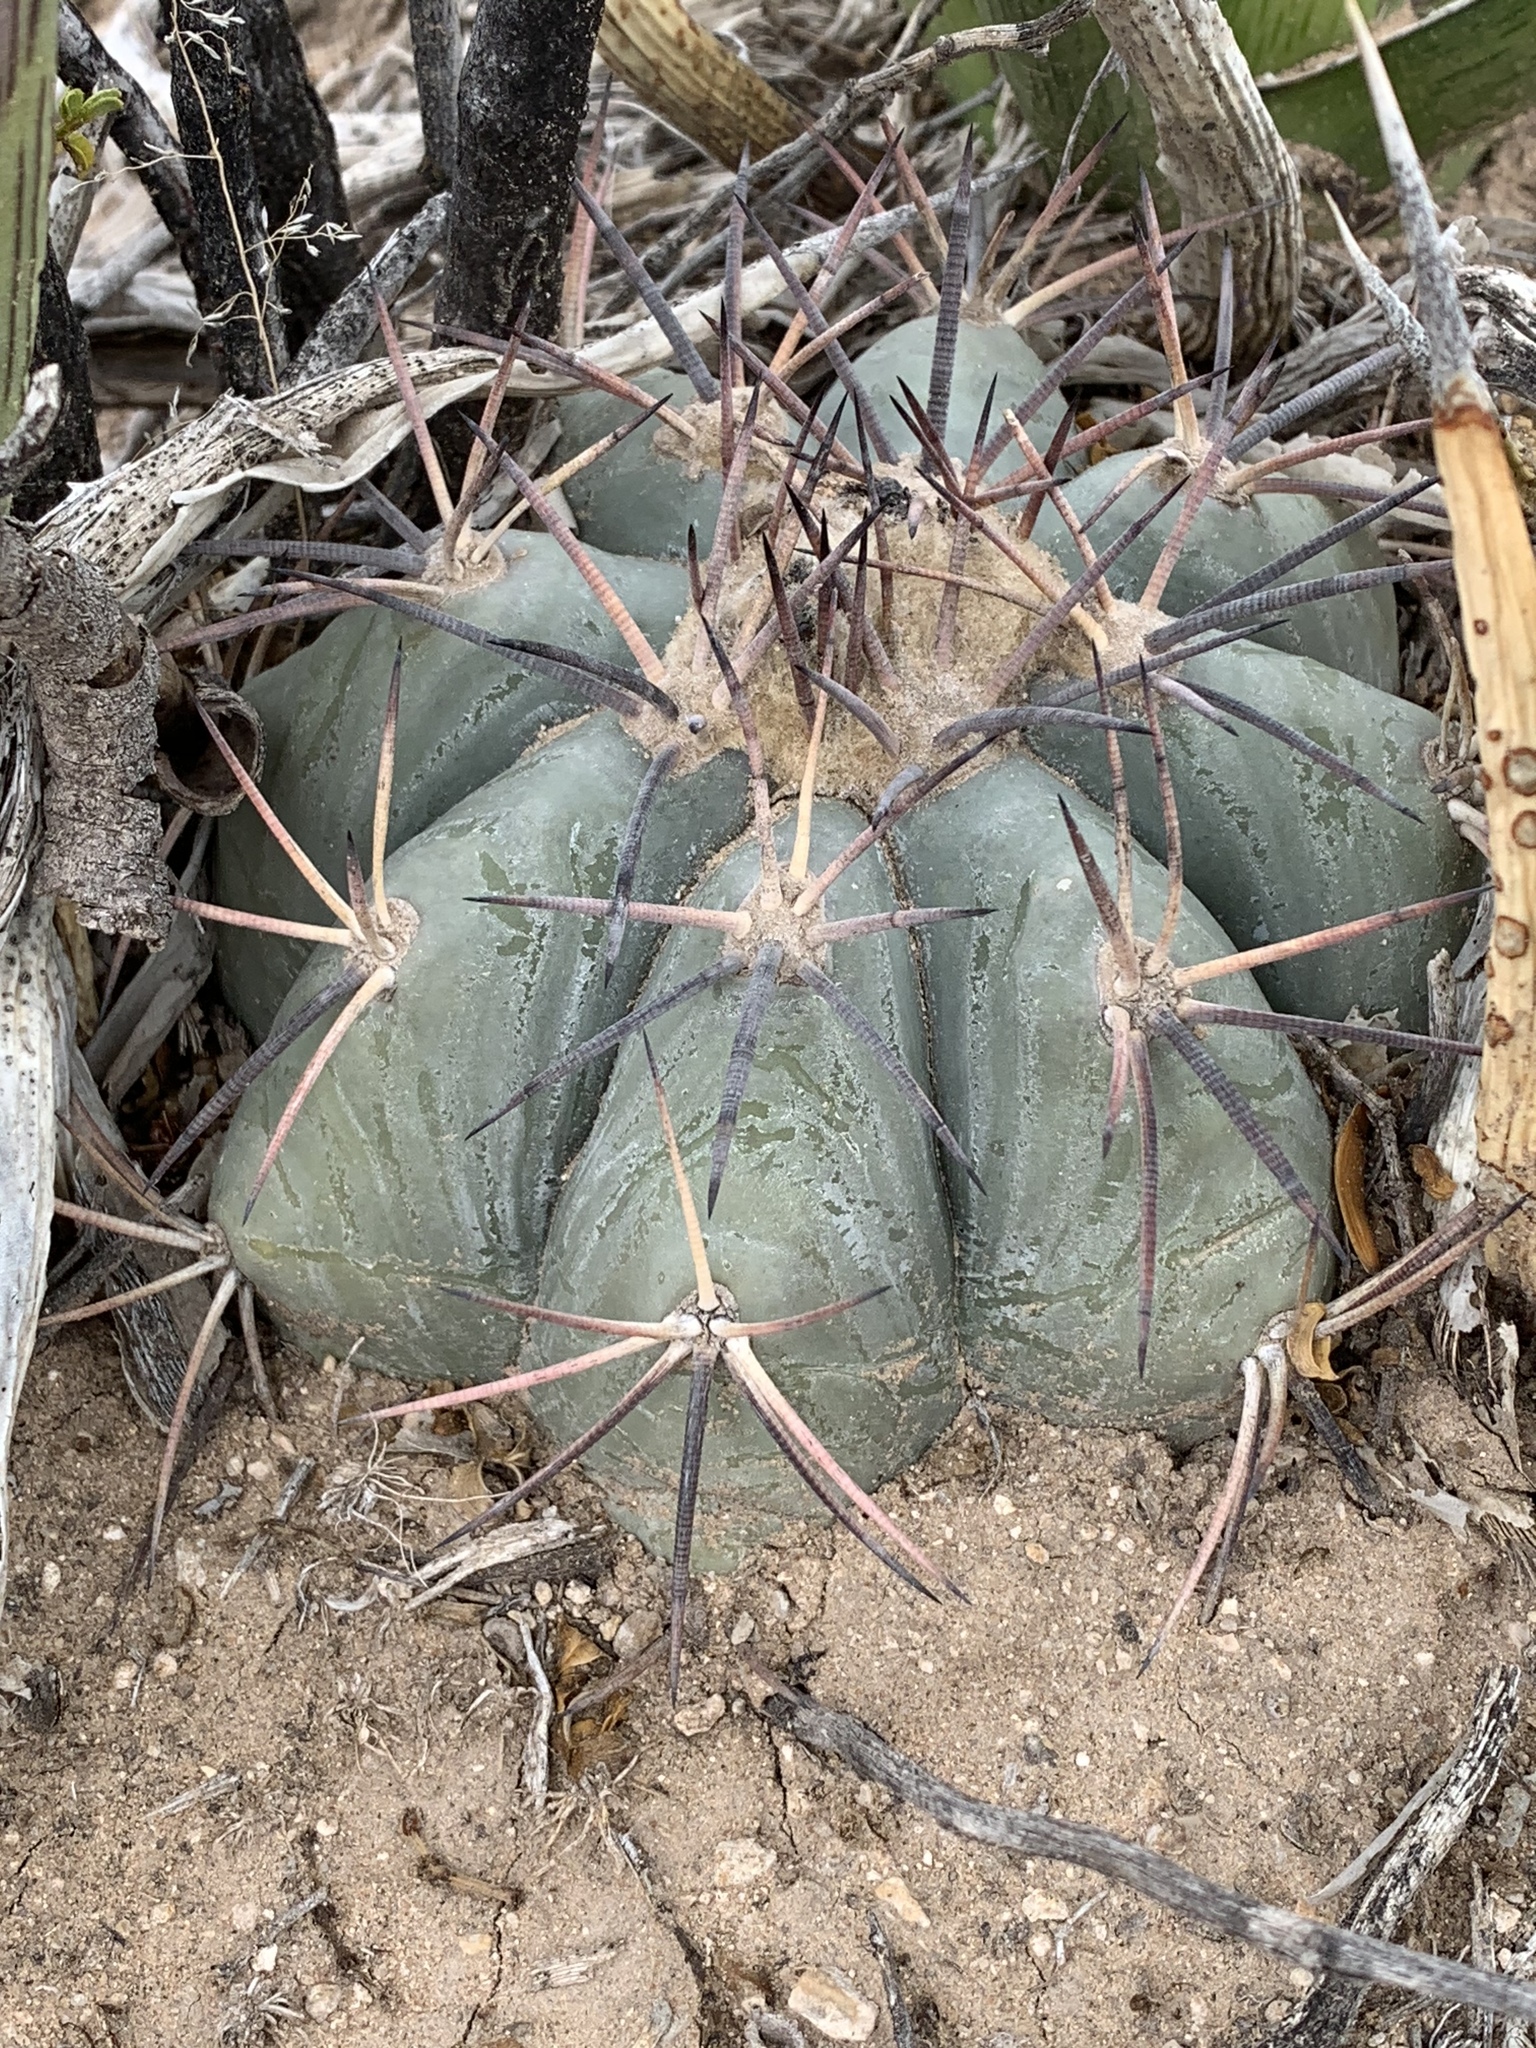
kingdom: Plantae
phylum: Tracheophyta
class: Magnoliopsida
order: Caryophyllales
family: Cactaceae
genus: Echinocactus
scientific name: Echinocactus horizonthalonius
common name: Devilshead
